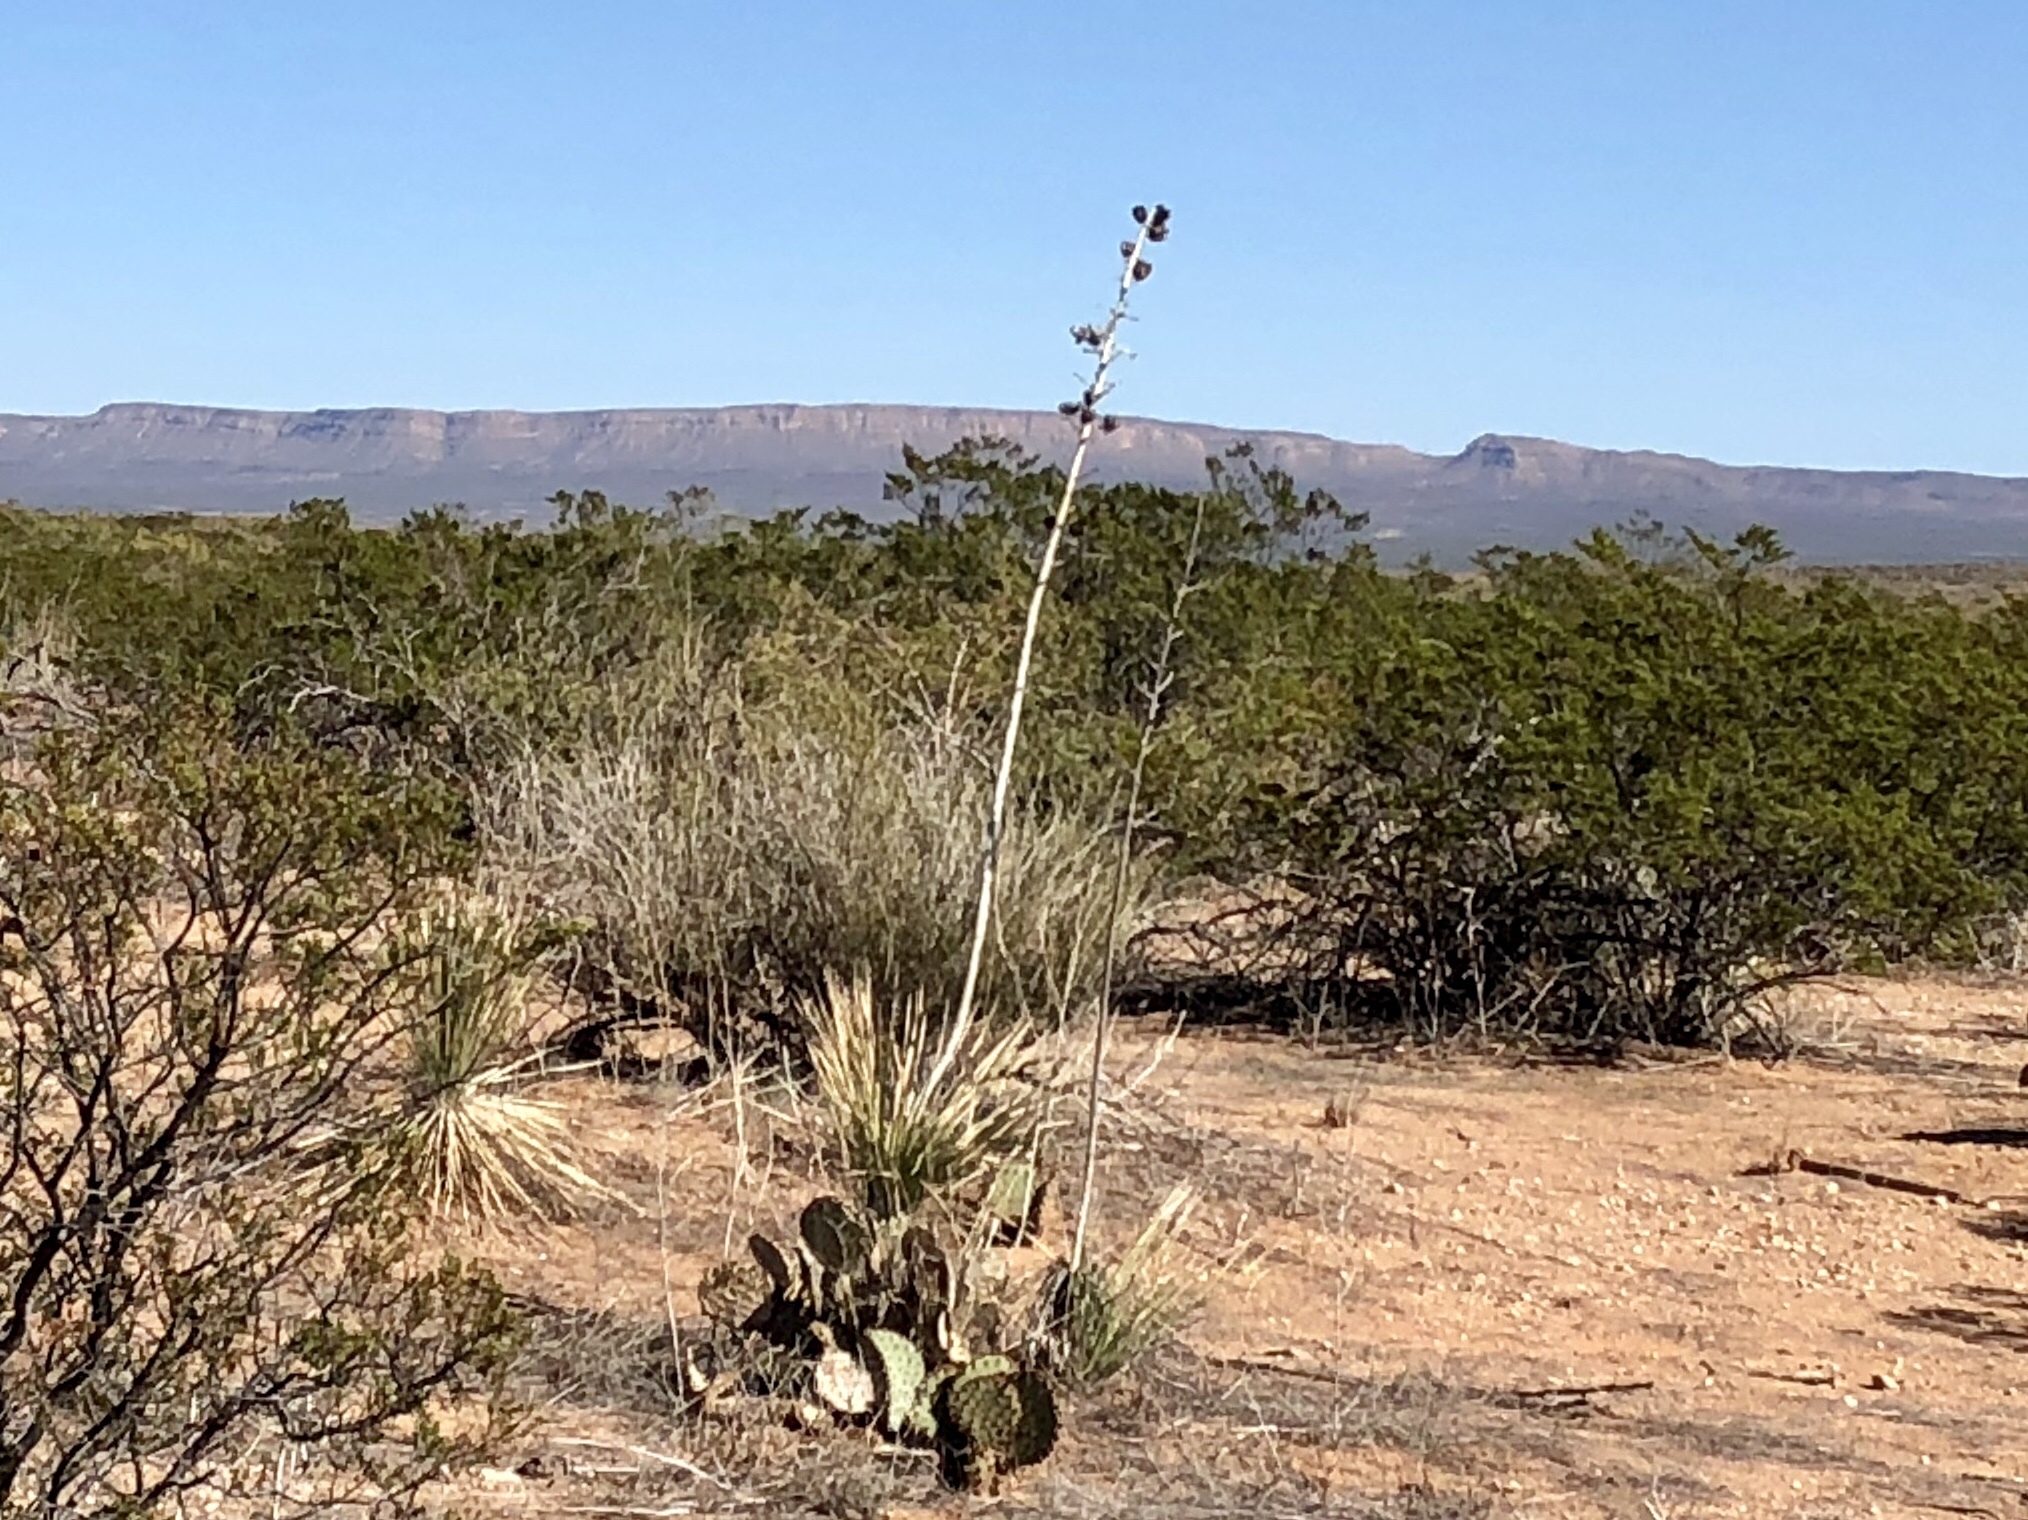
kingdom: Plantae
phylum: Tracheophyta
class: Liliopsida
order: Asparagales
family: Asparagaceae
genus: Yucca
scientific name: Yucca elata
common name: Palmella
